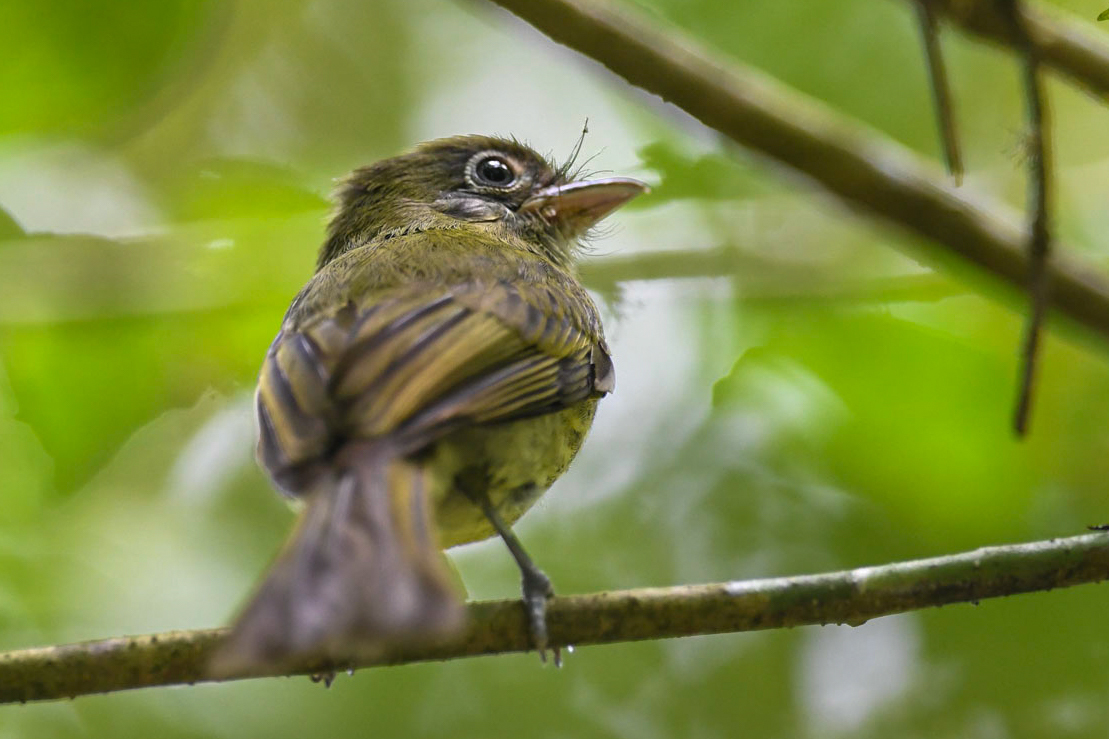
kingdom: Animalia
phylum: Chordata
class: Aves
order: Passeriformes
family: Tyrannidae
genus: Rhynchocyclus
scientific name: Rhynchocyclus brevirostris
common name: Eye-ringed flatbill
